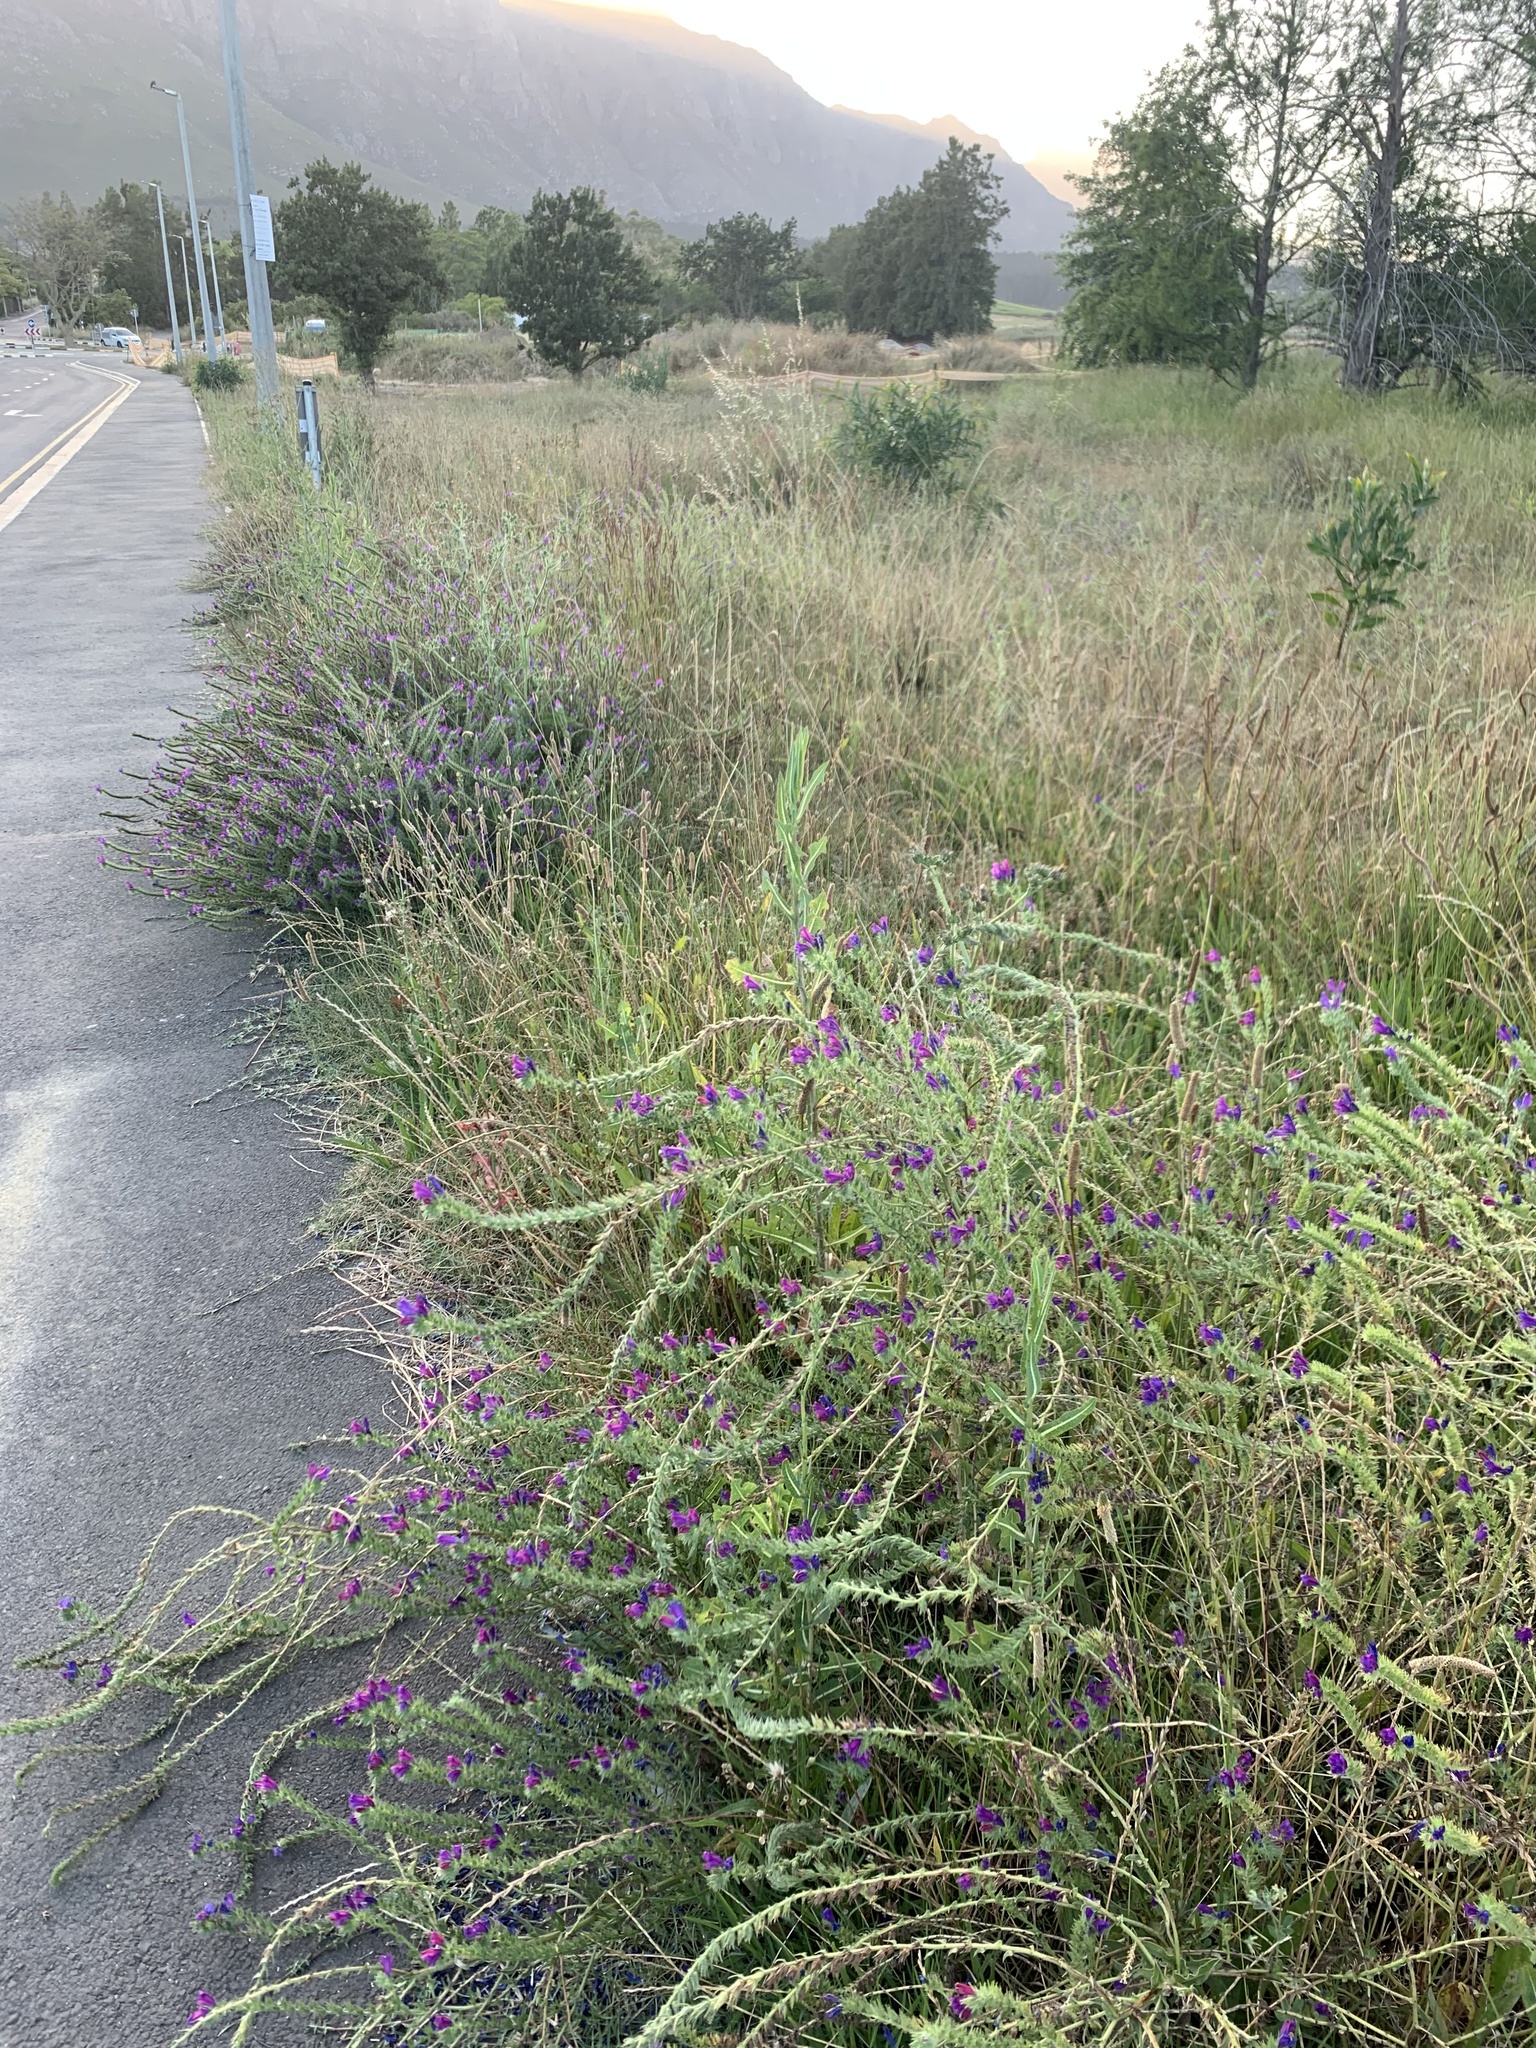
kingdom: Plantae
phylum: Tracheophyta
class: Magnoliopsida
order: Boraginales
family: Boraginaceae
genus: Echium
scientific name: Echium plantagineum
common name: Purple viper's-bugloss
